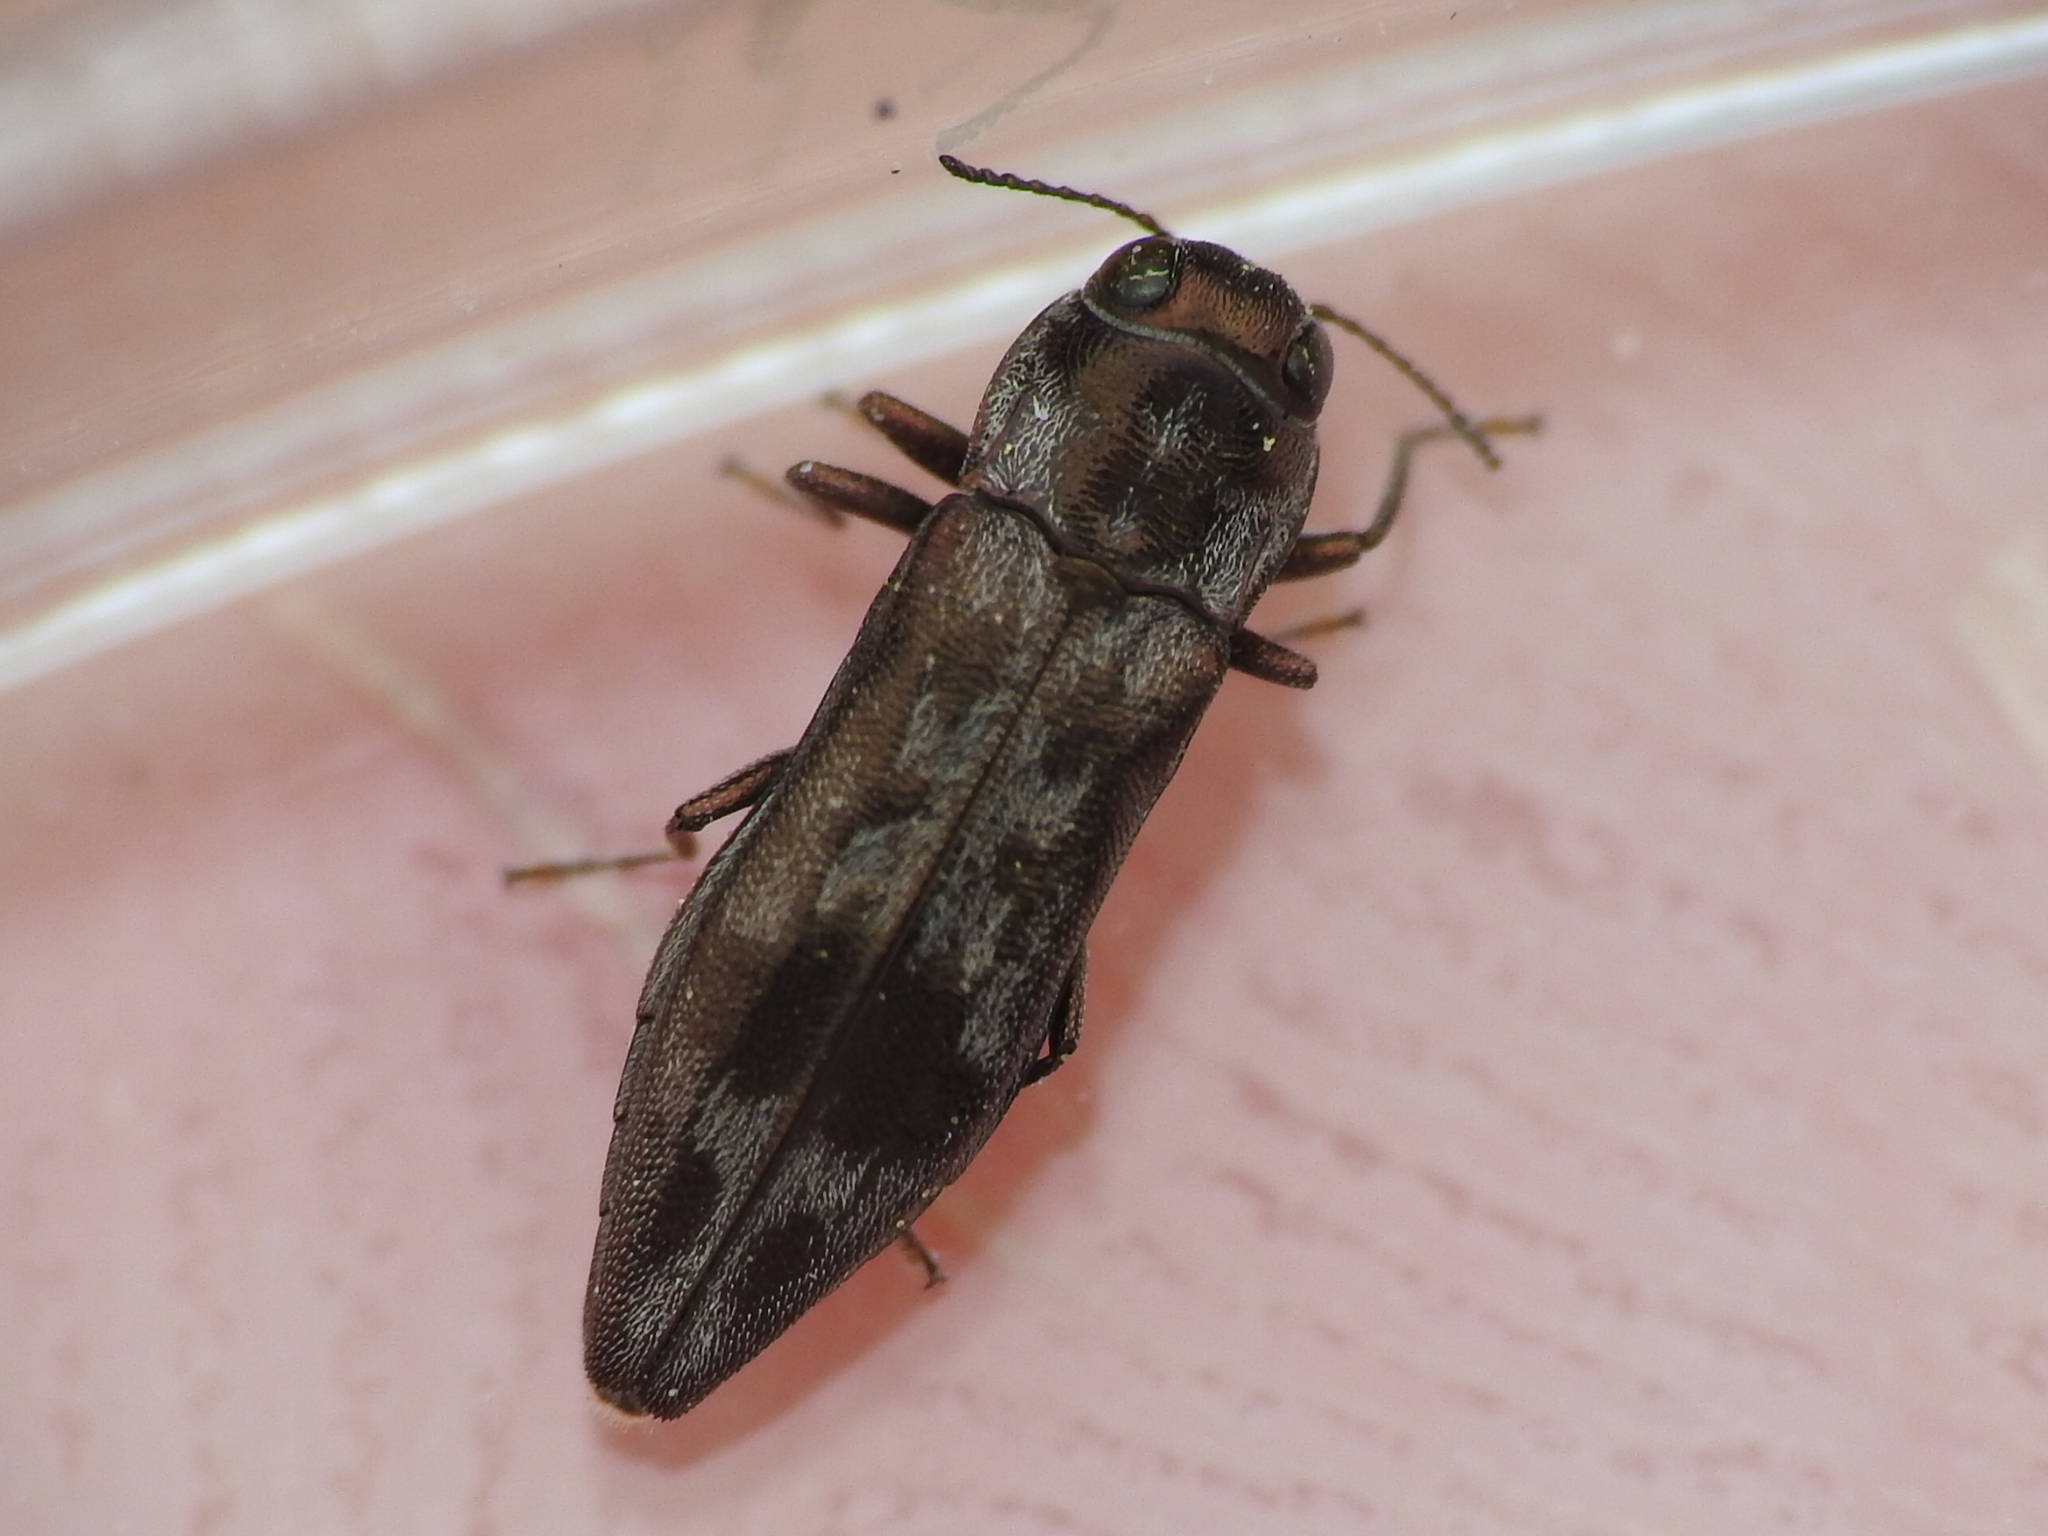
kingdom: Animalia
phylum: Arthropoda
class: Insecta
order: Coleoptera
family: Buprestidae
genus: Agrilus
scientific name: Agrilus lecontei
